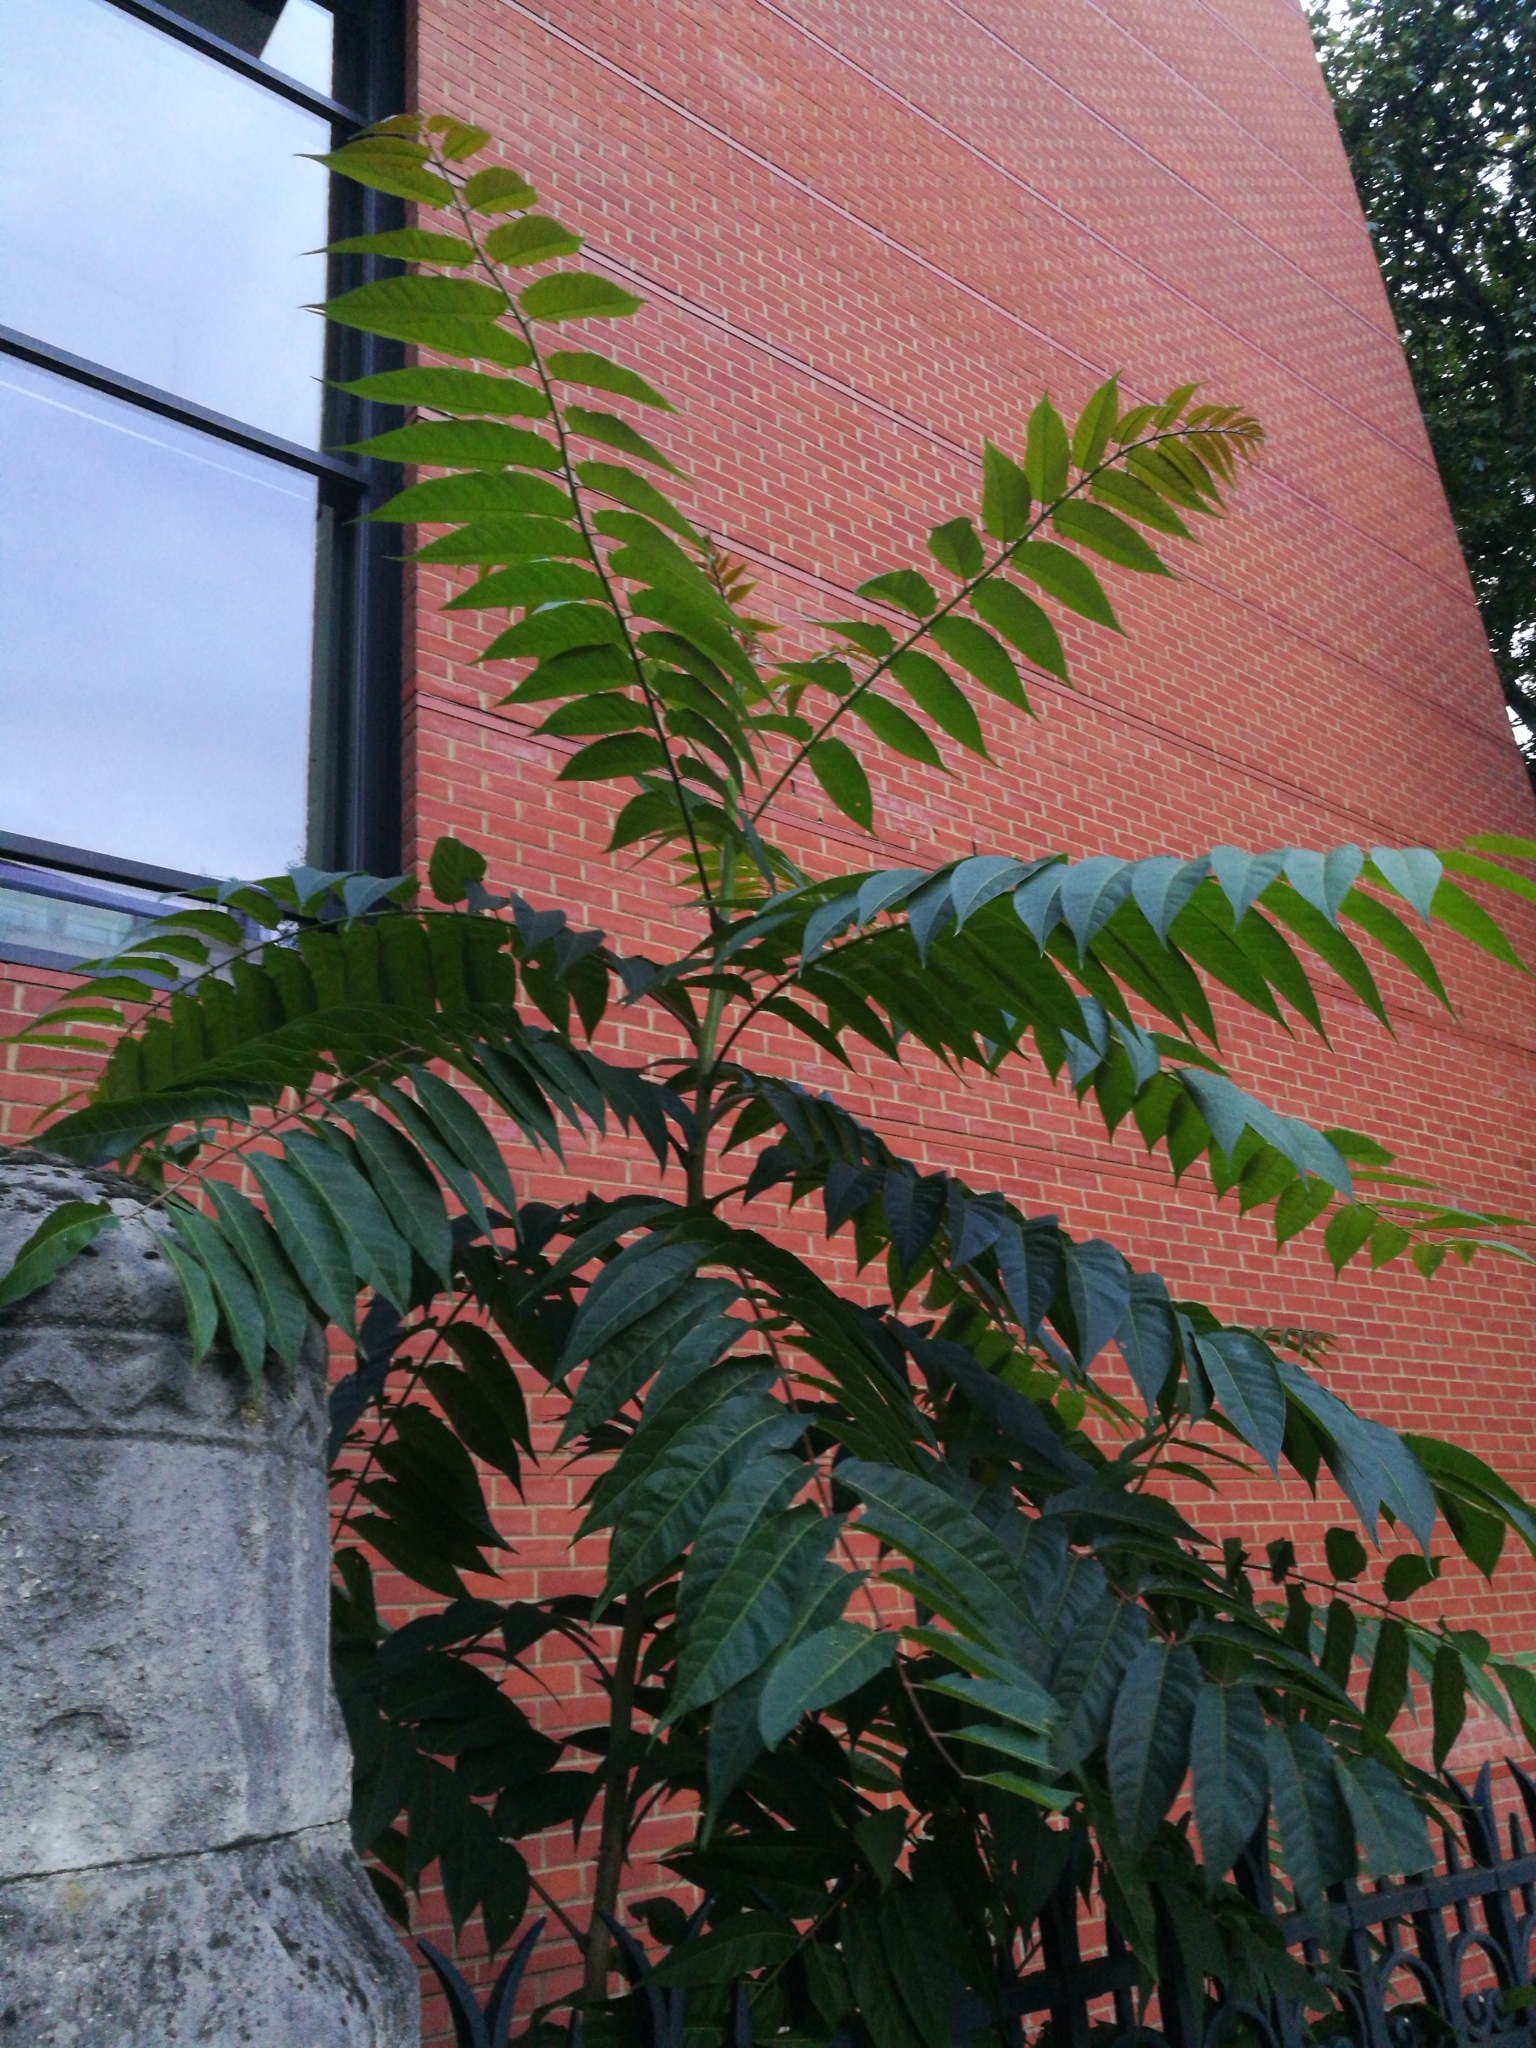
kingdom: Plantae
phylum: Tracheophyta
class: Magnoliopsida
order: Sapindales
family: Simaroubaceae
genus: Ailanthus
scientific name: Ailanthus altissima
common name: Tree-of-heaven
